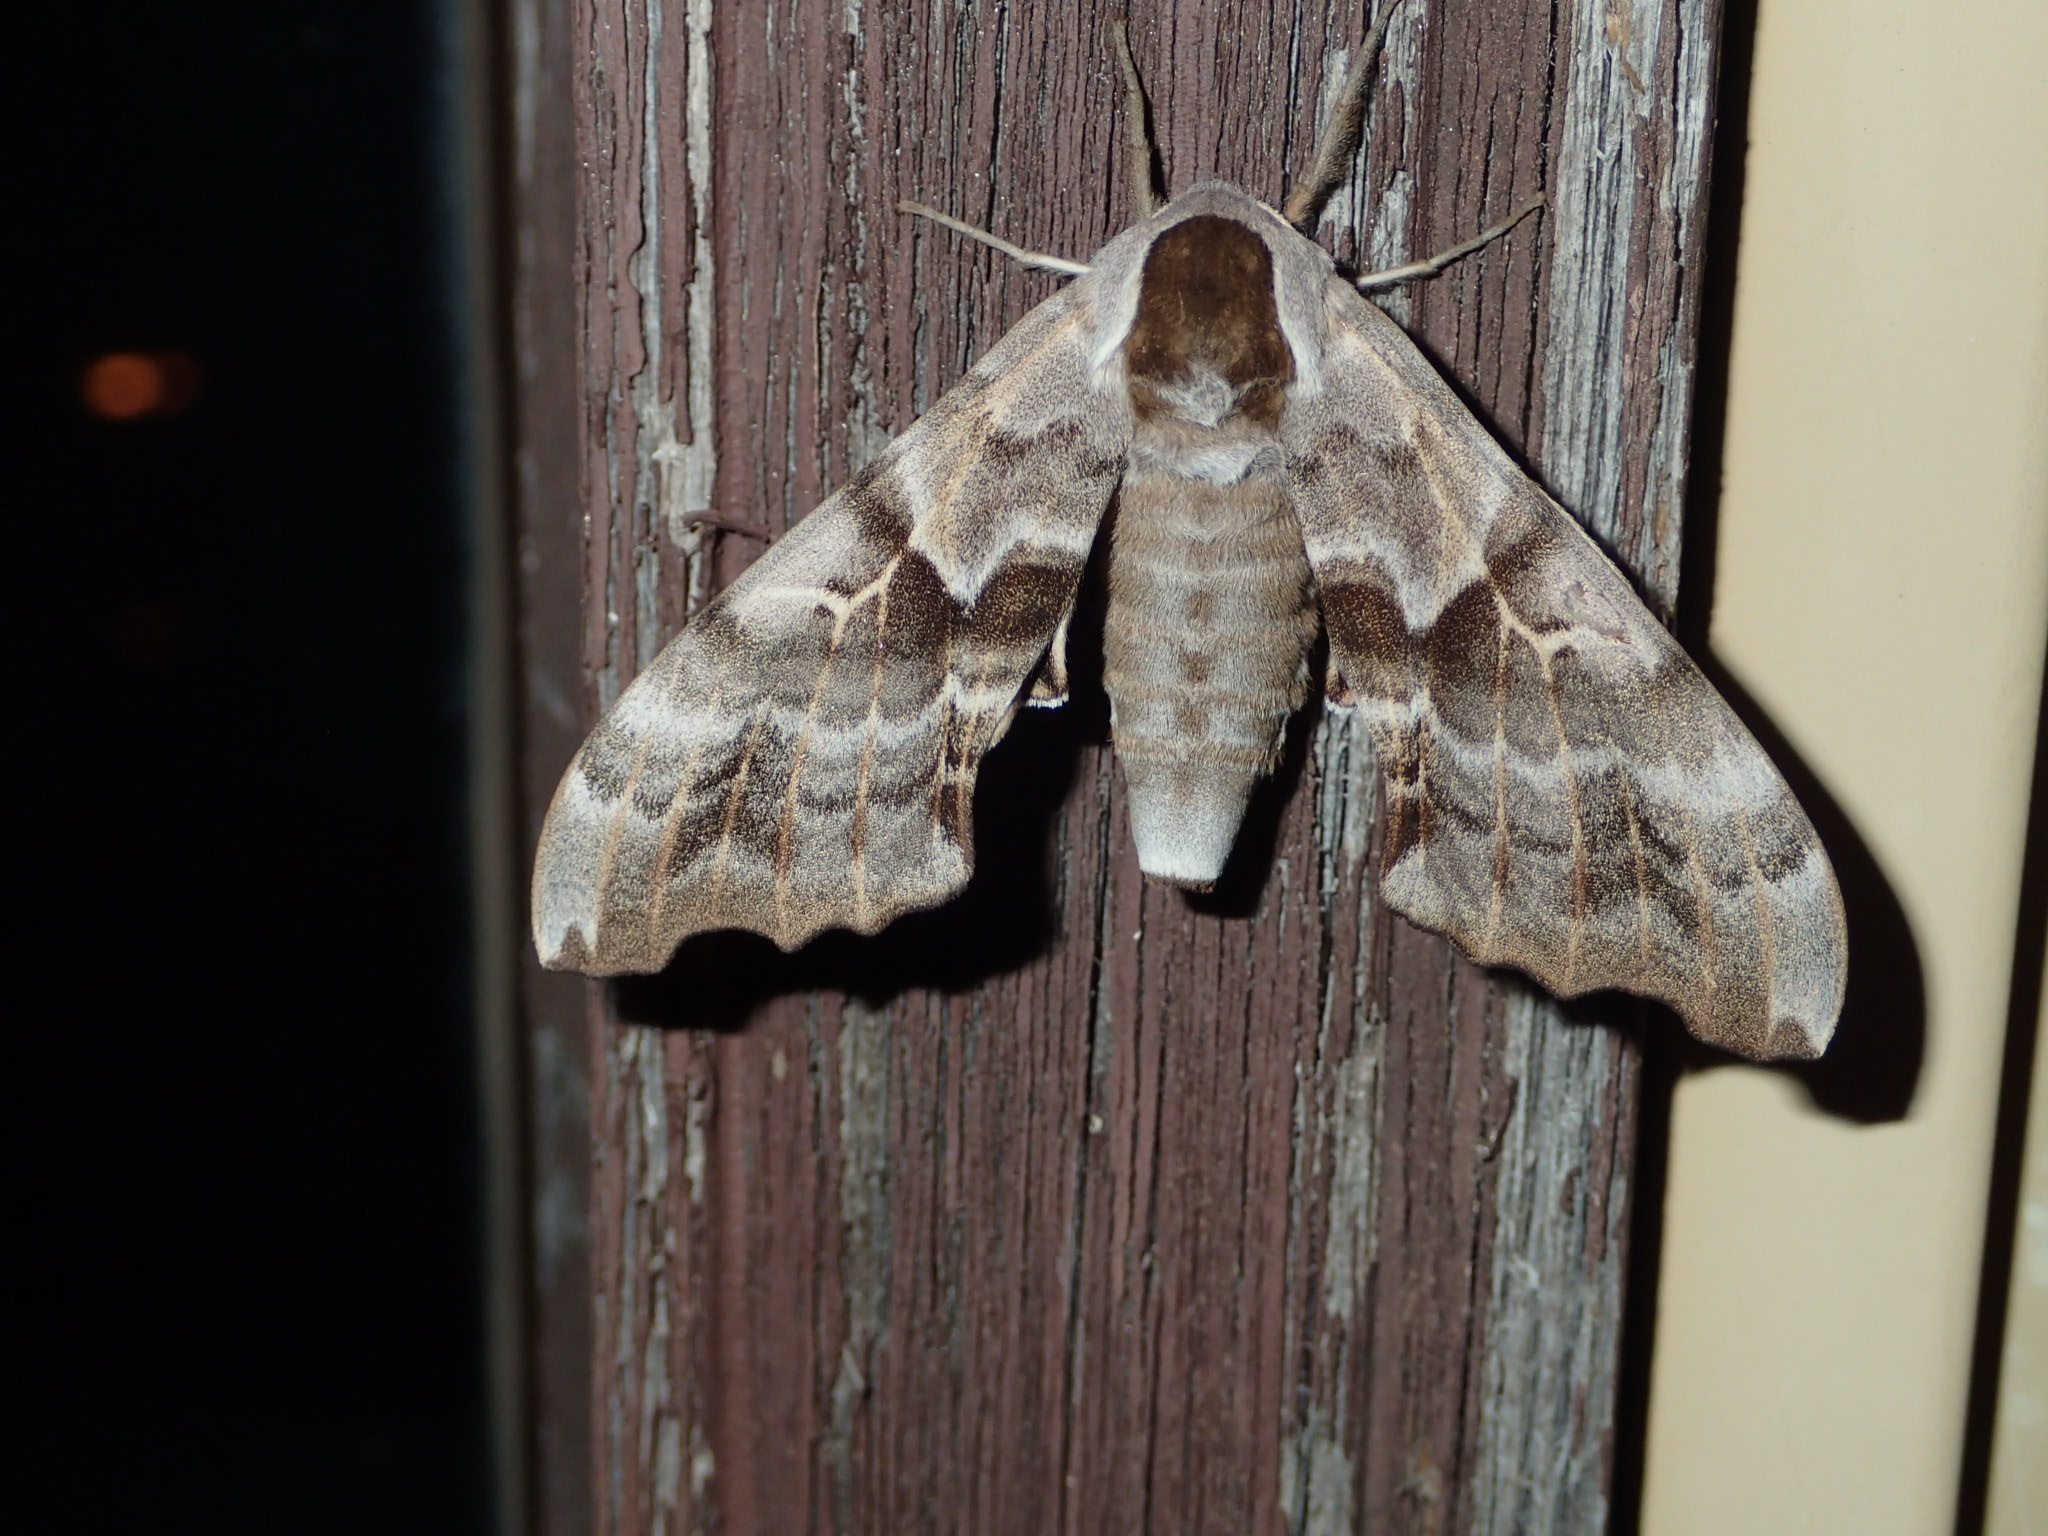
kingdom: Animalia
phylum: Arthropoda
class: Insecta
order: Lepidoptera
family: Sphingidae
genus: Smerinthus
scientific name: Smerinthus cerisyi
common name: Cerisy's sphinx moth
